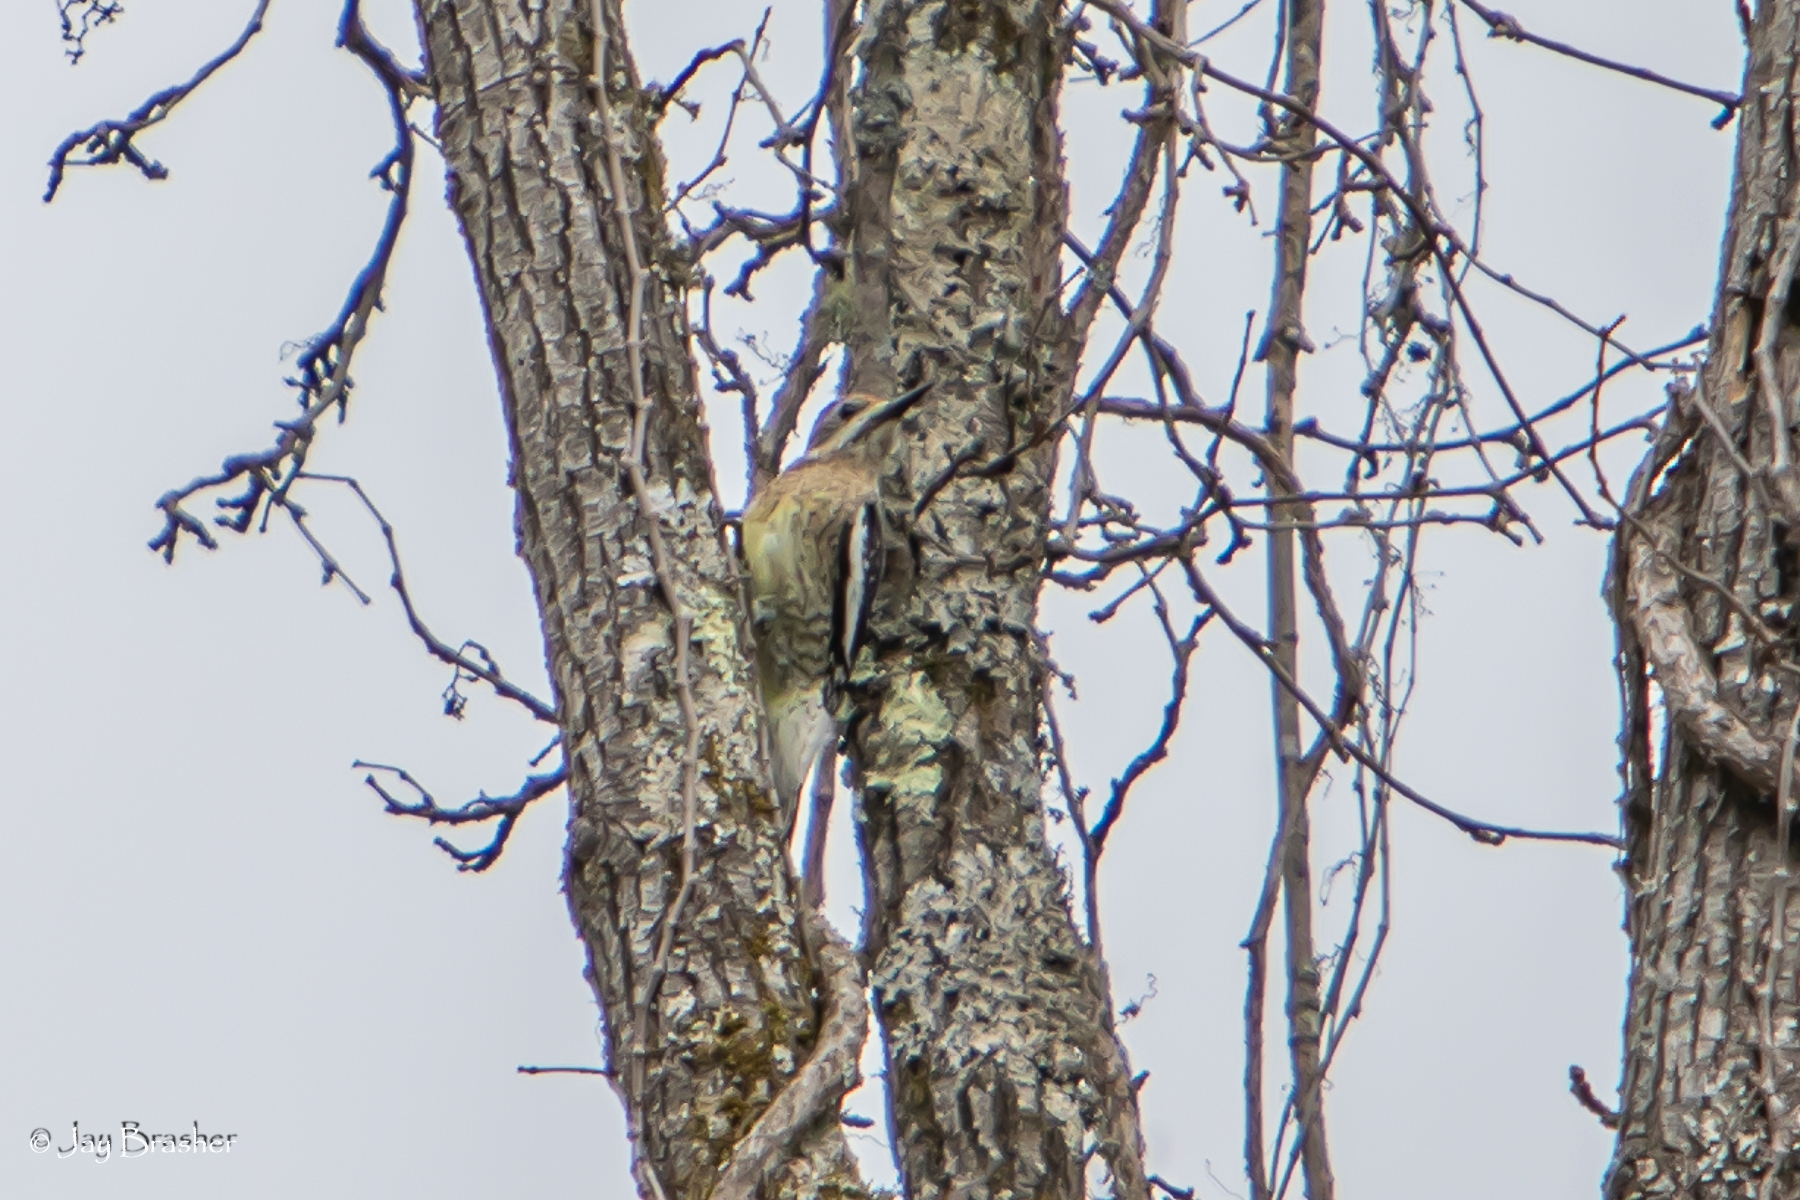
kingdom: Animalia
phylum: Chordata
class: Aves
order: Piciformes
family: Picidae
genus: Sphyrapicus
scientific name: Sphyrapicus varius
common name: Yellow-bellied sapsucker
